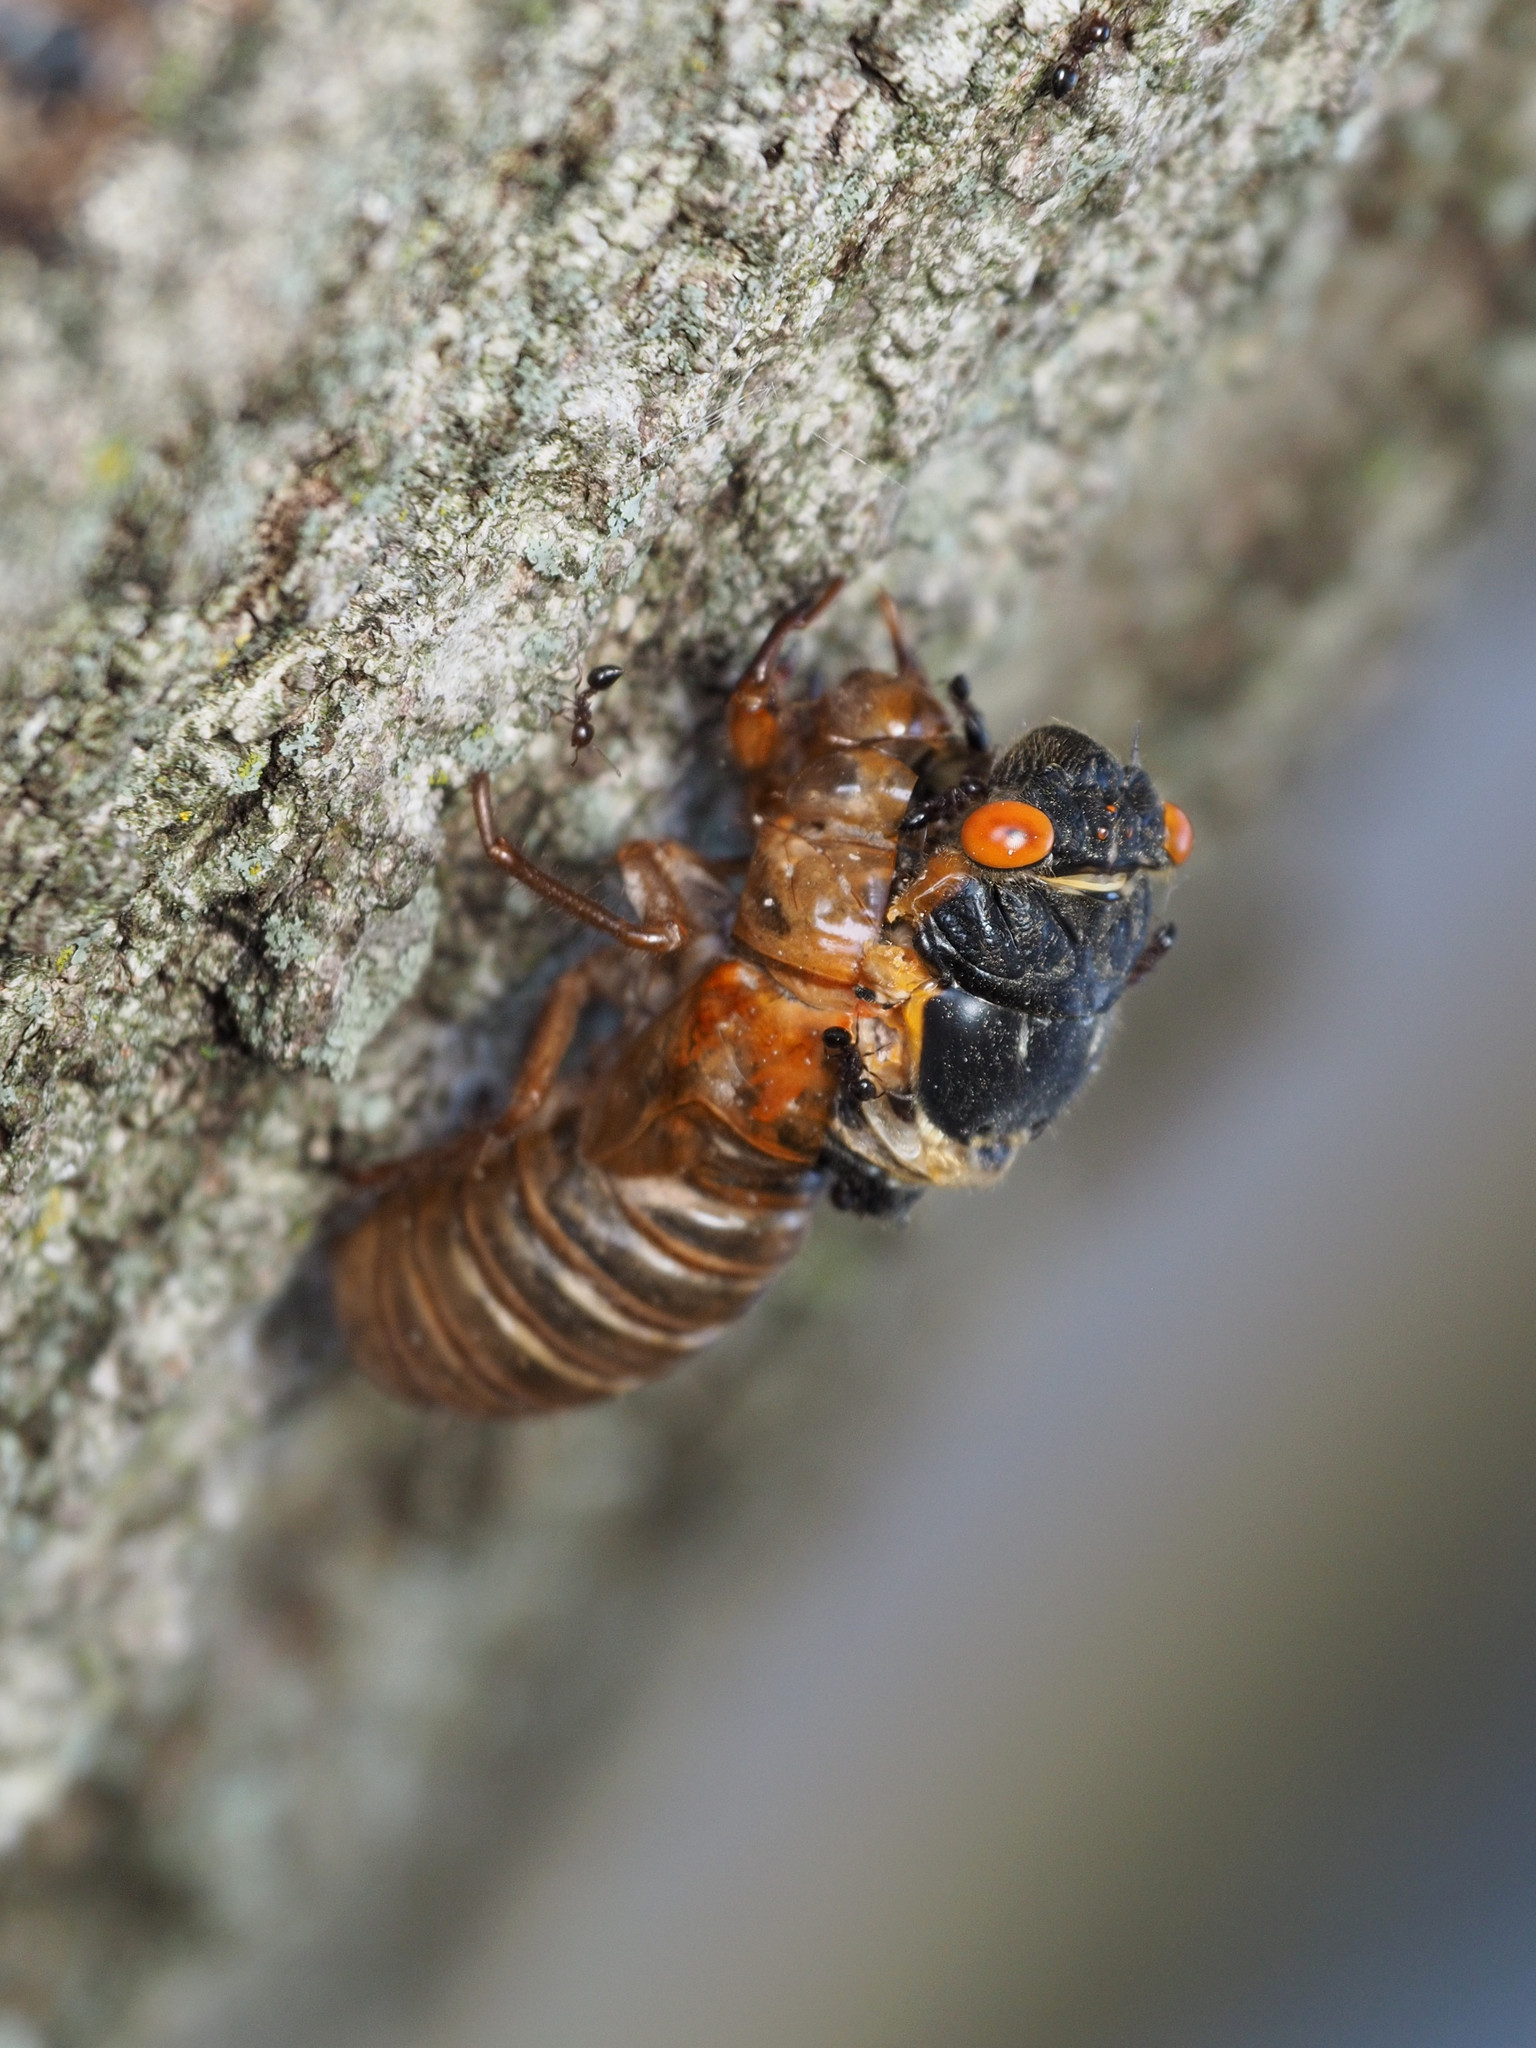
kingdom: Animalia
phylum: Arthropoda
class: Insecta
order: Hemiptera
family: Cicadidae
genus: Magicicada
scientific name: Magicicada septendecim
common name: Periodical cicada
